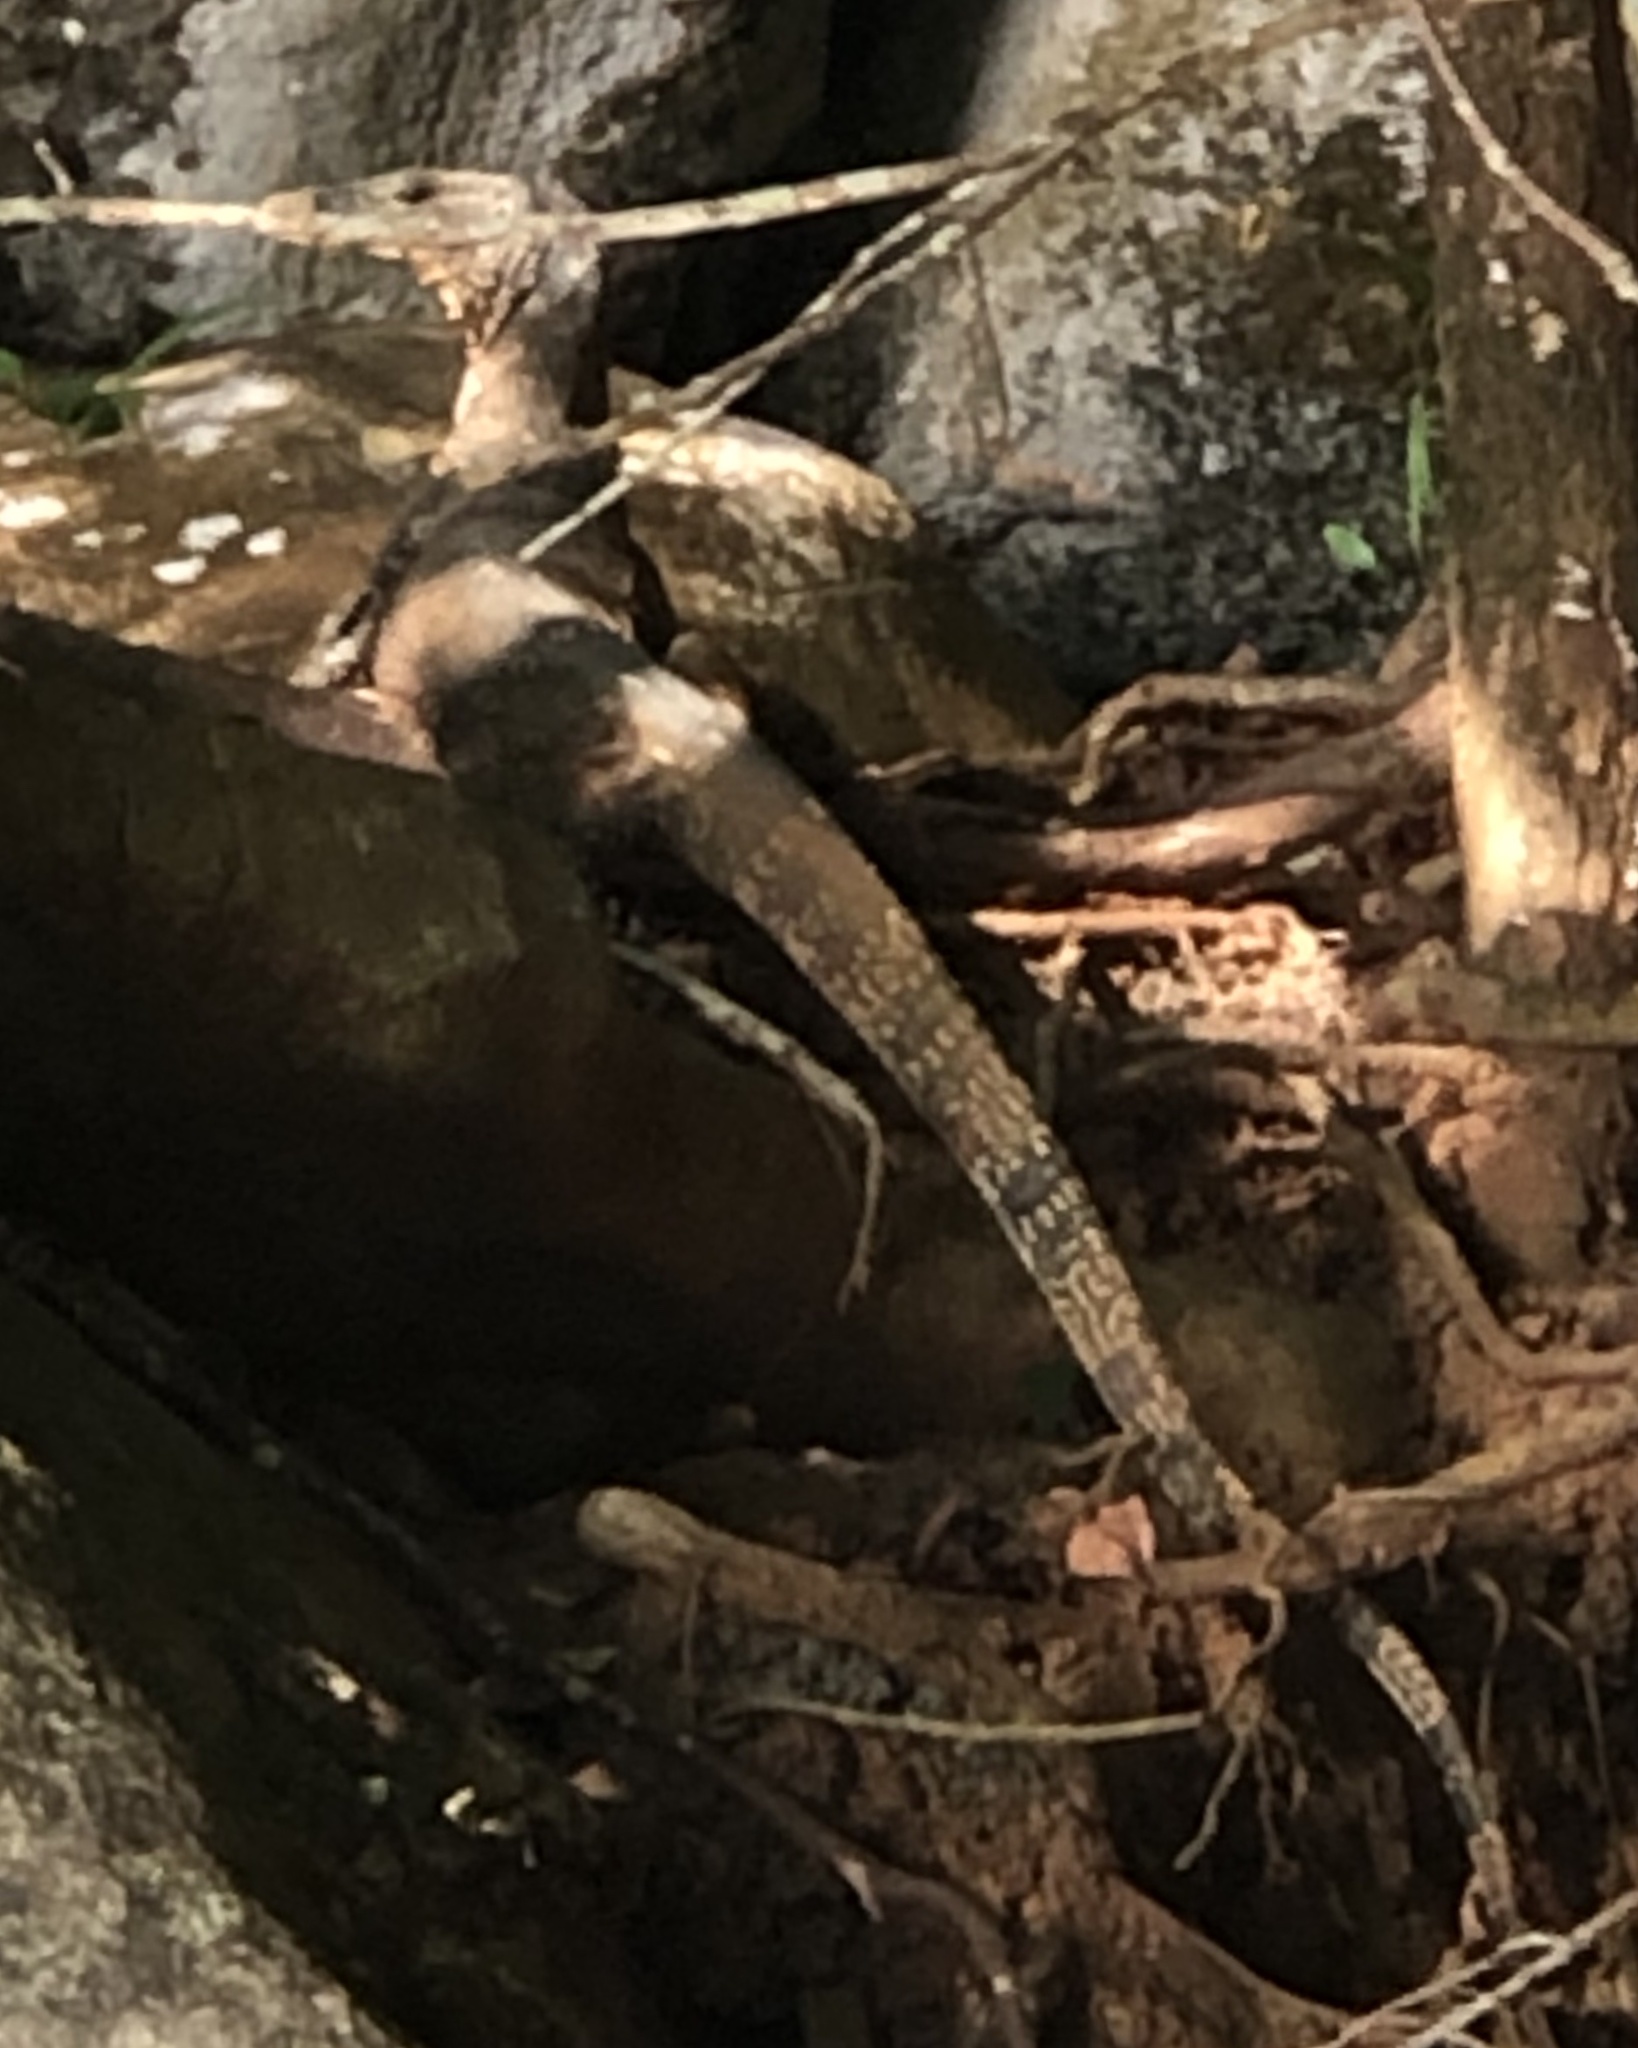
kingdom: Animalia
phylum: Chordata
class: Squamata
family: Varanidae
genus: Varanus
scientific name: Varanus salvator
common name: Common water monitor
